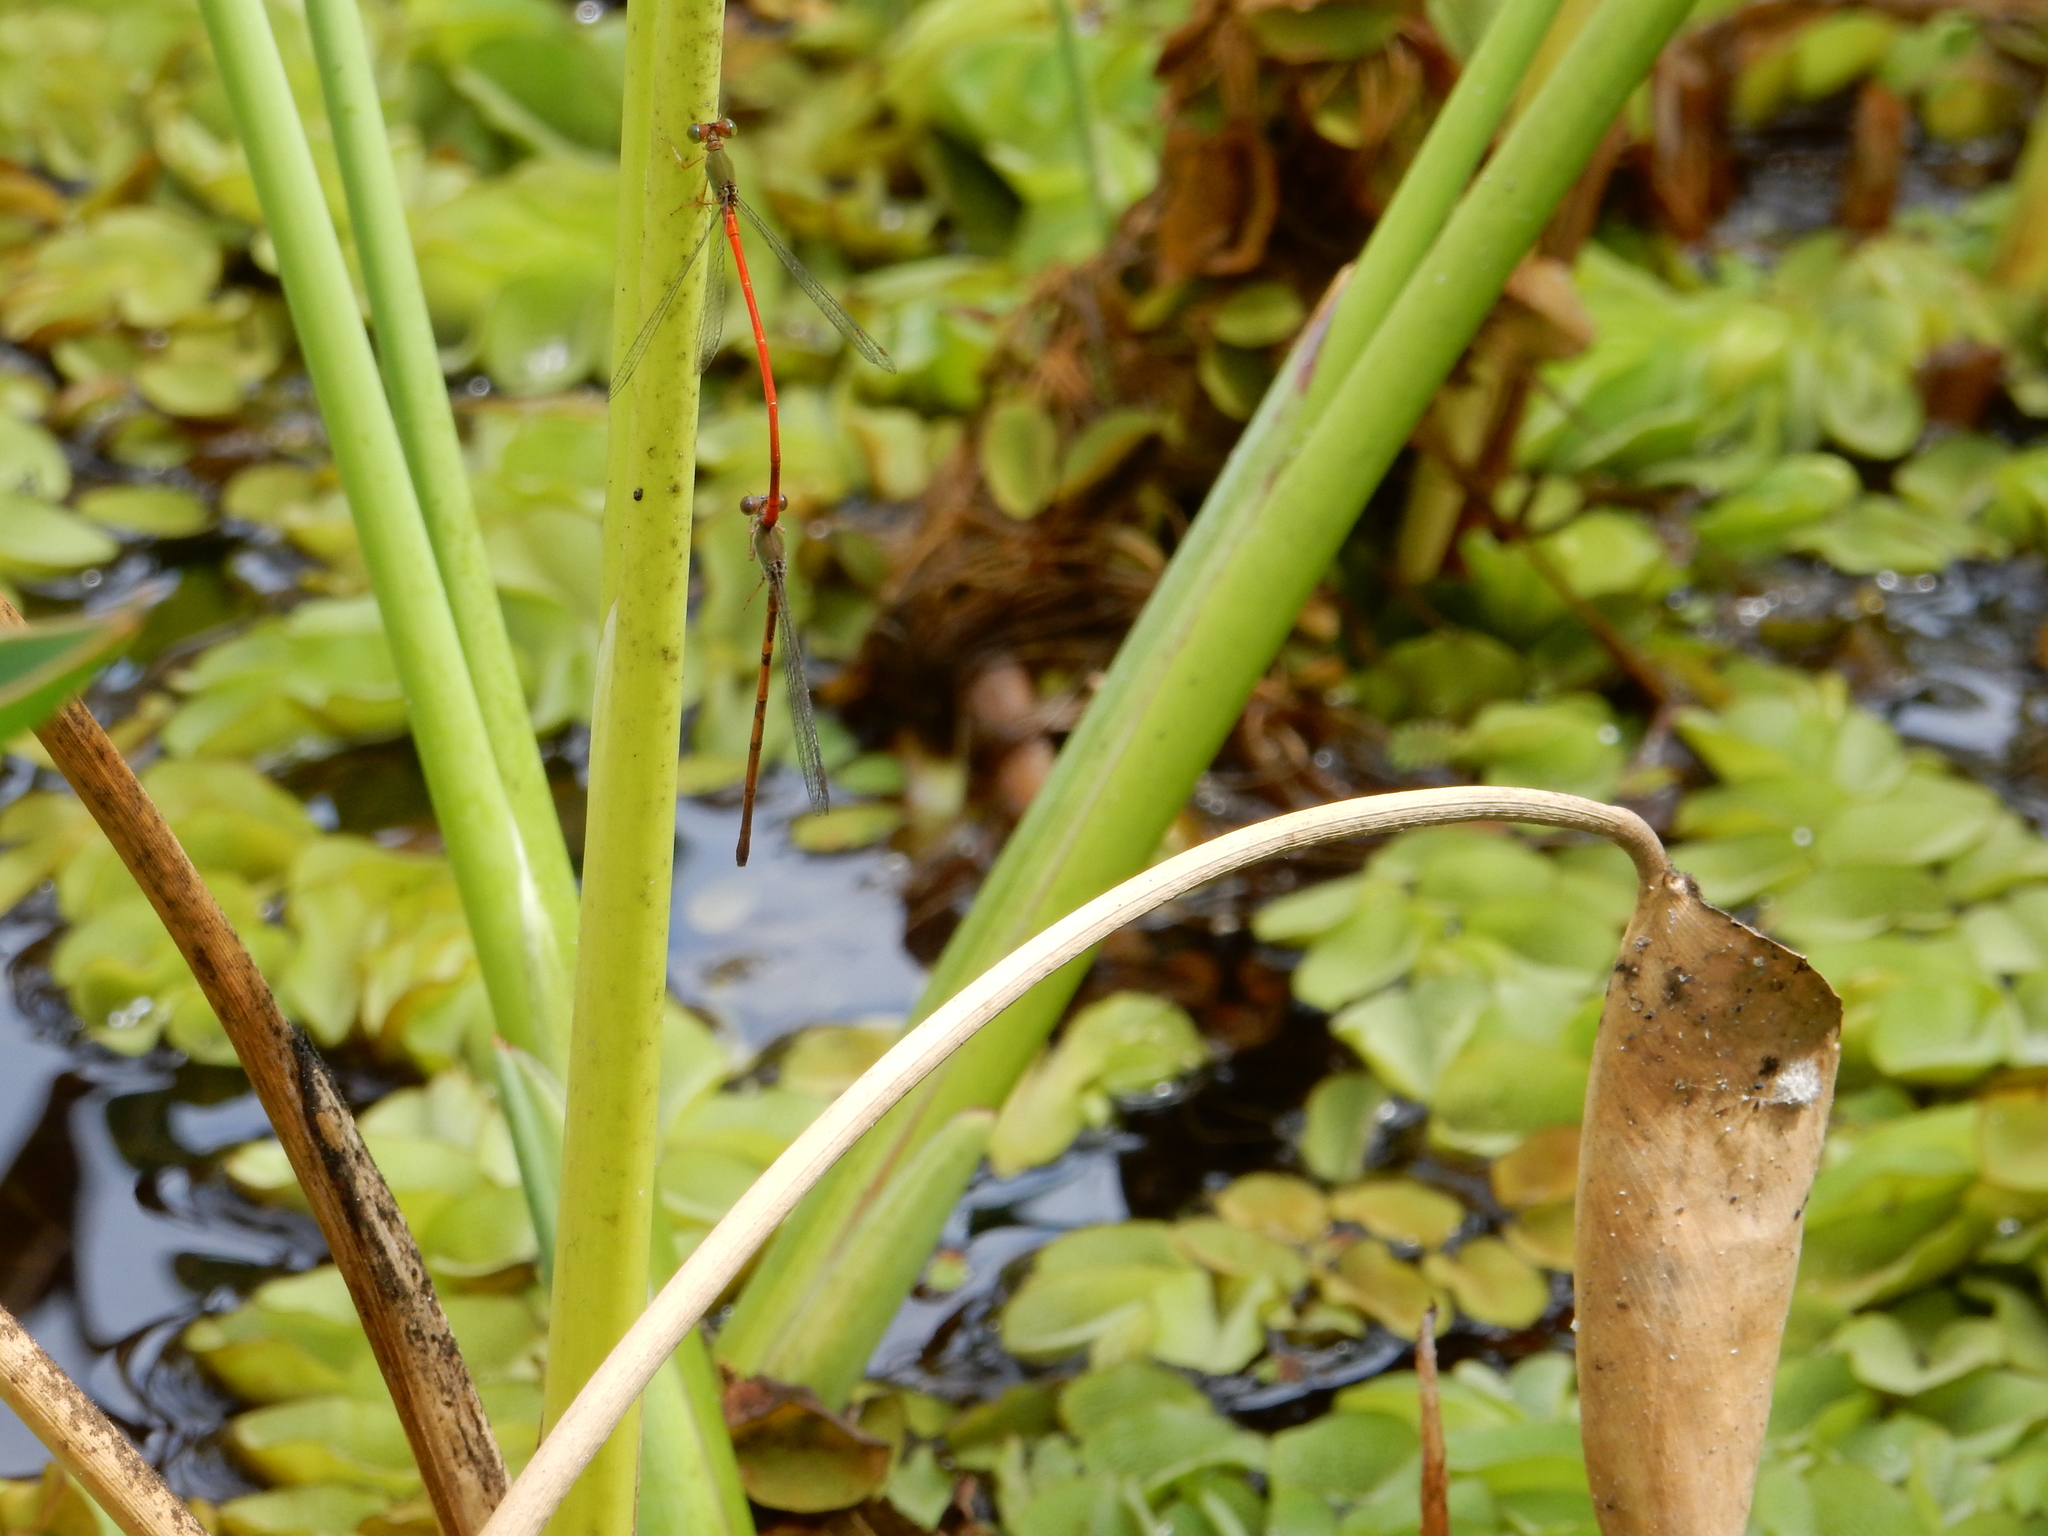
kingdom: Animalia
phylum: Arthropoda
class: Insecta
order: Odonata
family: Coenagrionidae
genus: Ceriagrion
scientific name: Ceriagrion aeruginosum
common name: Redtail
